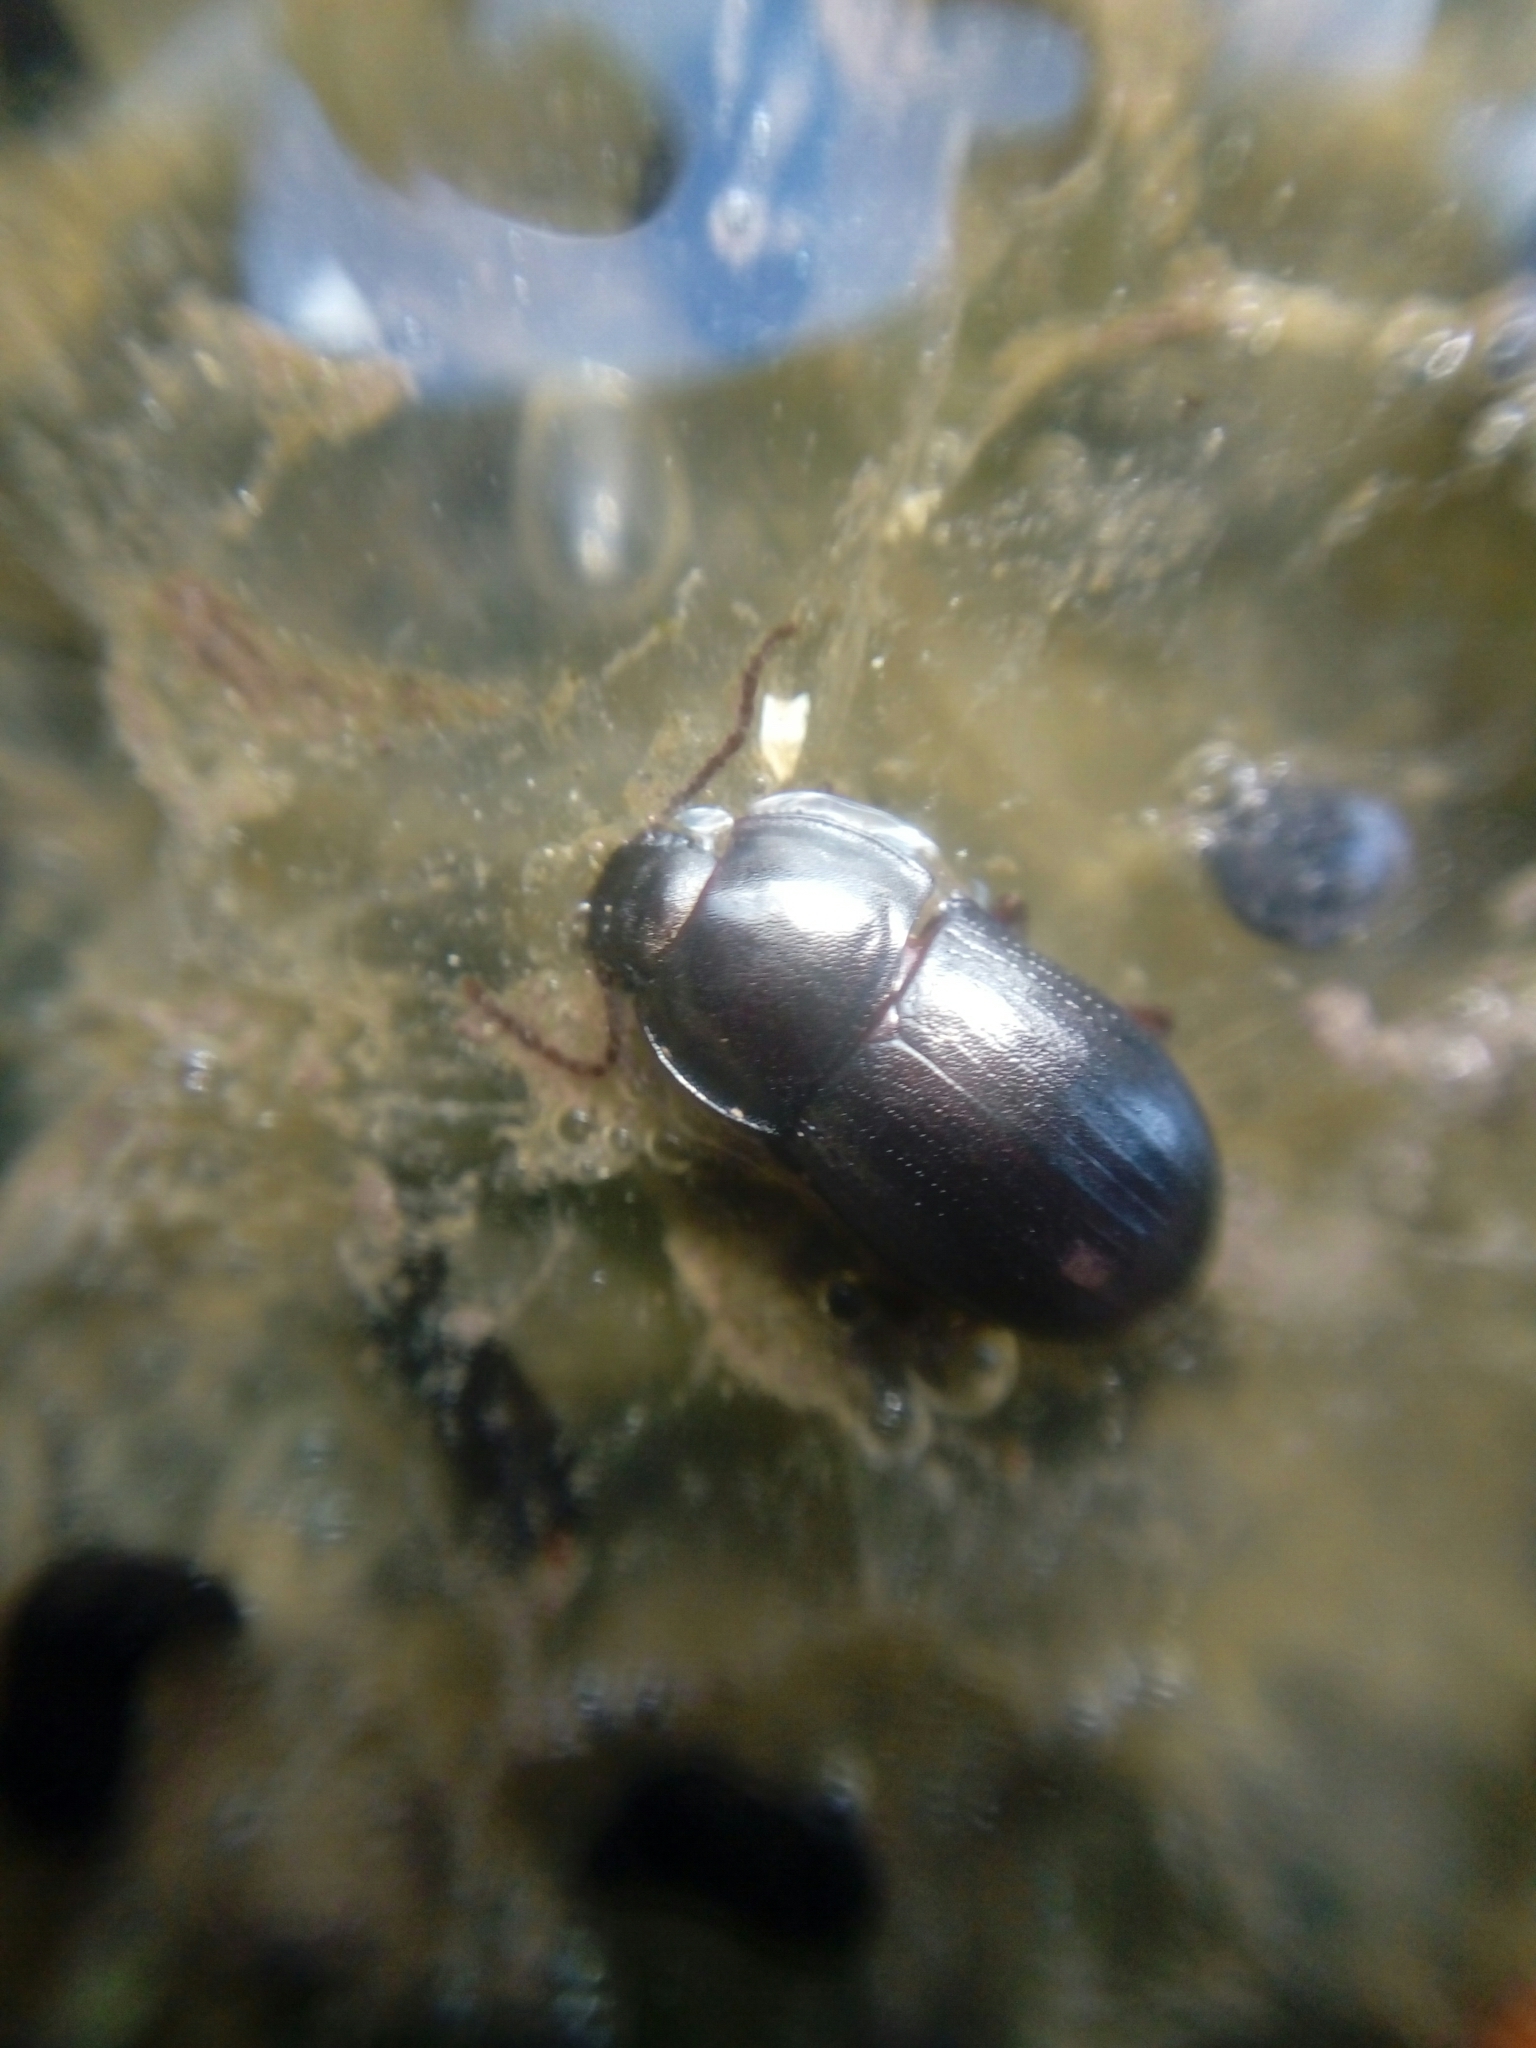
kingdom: Animalia
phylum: Arthropoda
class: Insecta
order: Coleoptera
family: Tenebrionidae
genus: Nalassus
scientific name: Nalassus convexus
